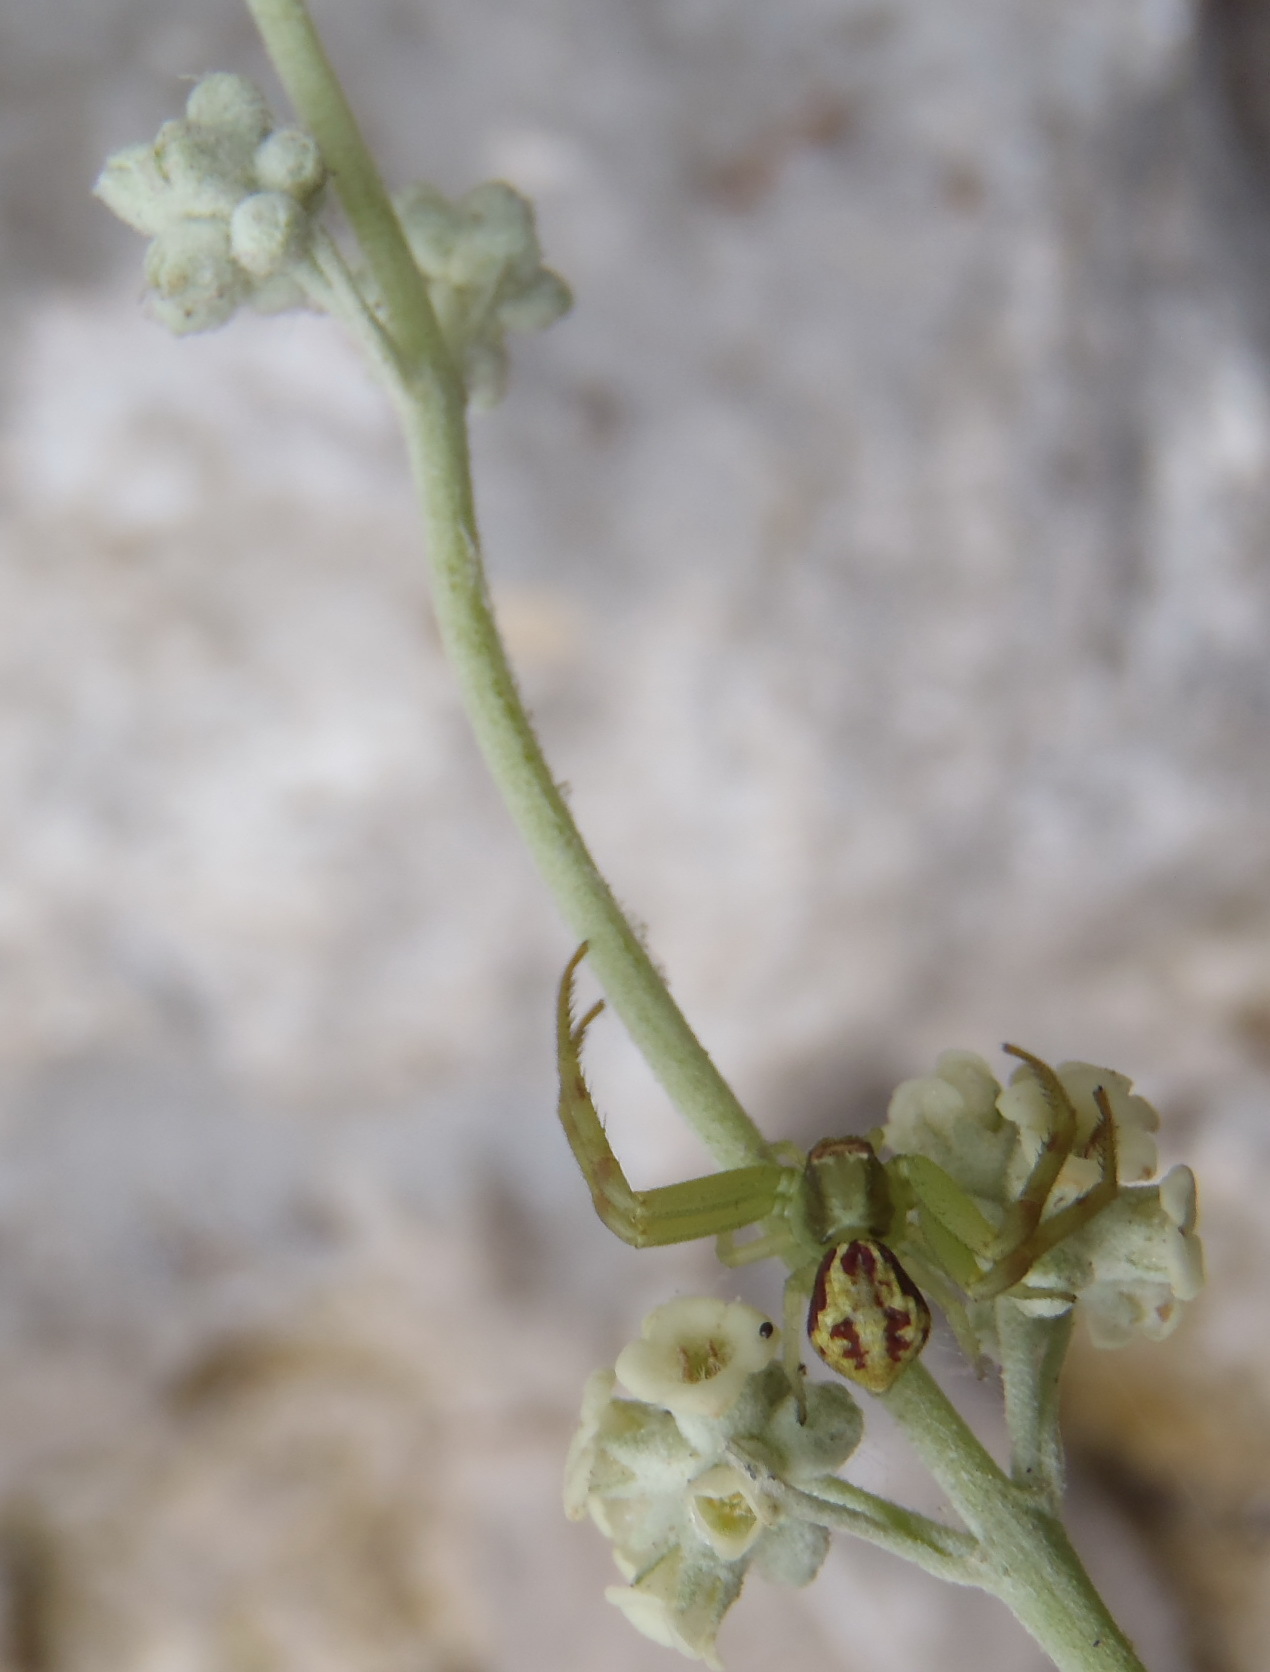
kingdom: Plantae
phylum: Tracheophyta
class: Magnoliopsida
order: Lamiales
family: Scrophulariaceae
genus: Buddleja
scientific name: Buddleja racemosa
